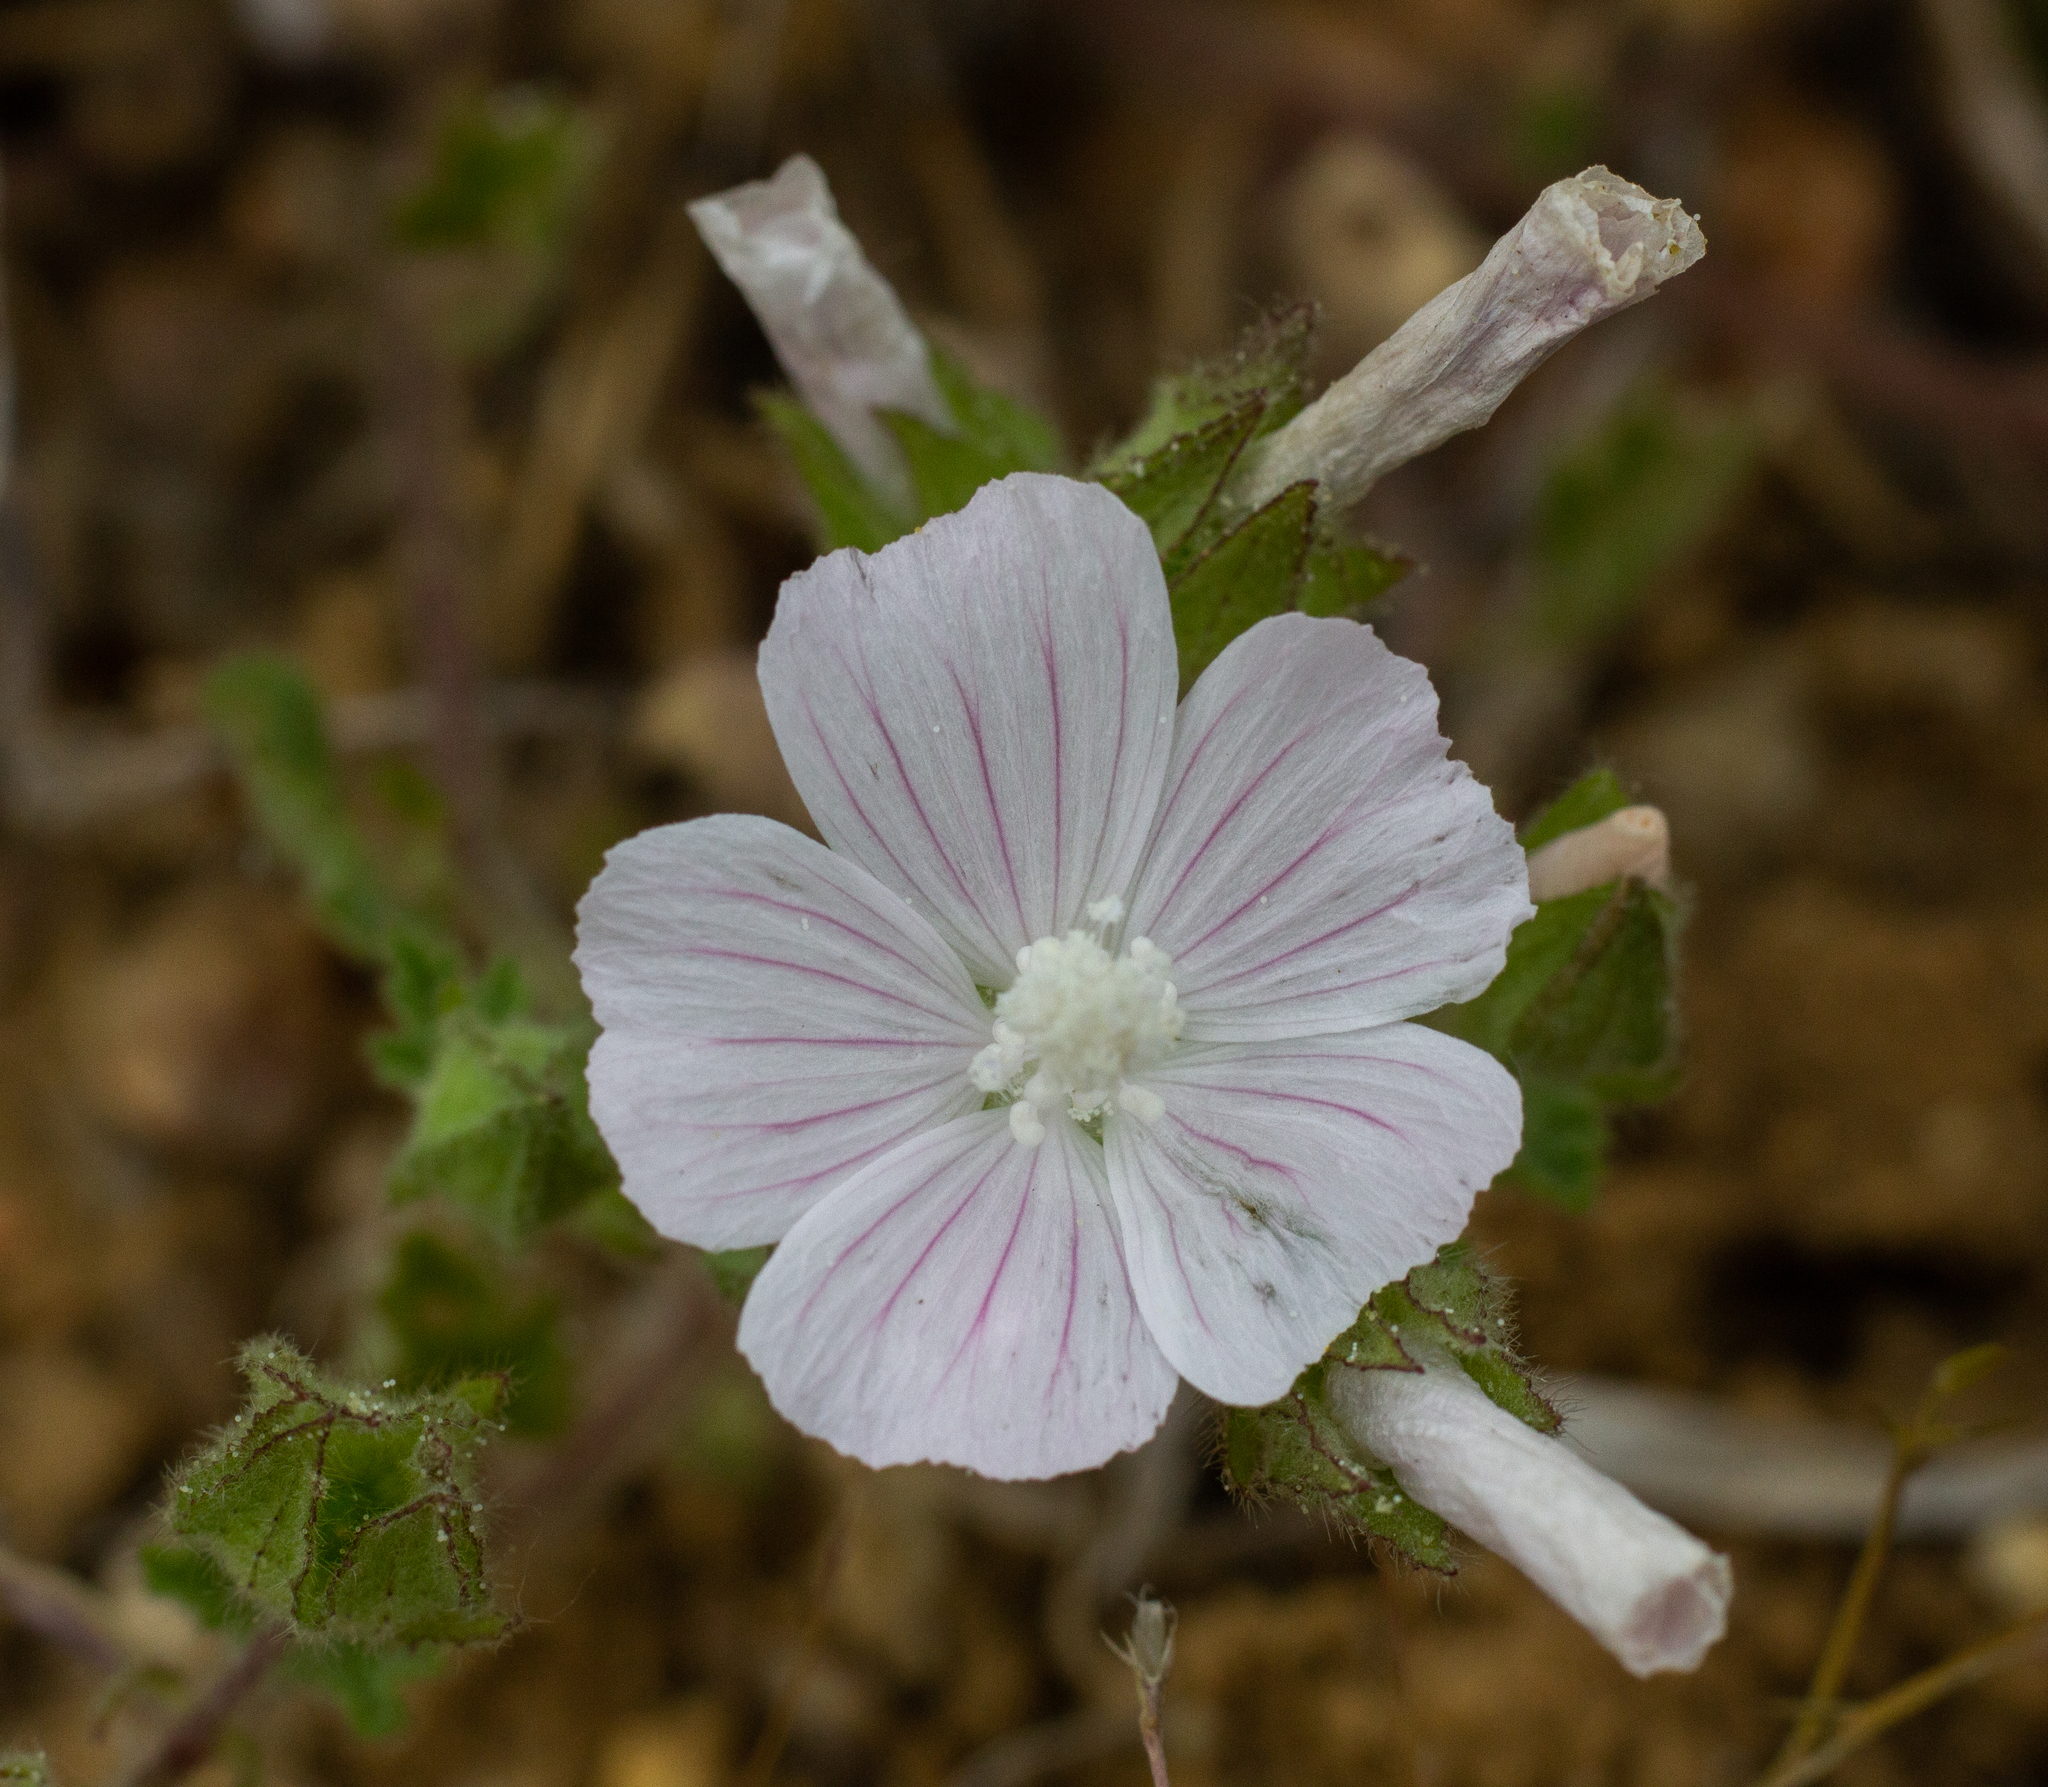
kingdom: Plantae
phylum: Tracheophyta
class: Magnoliopsida
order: Malvales
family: Malvaceae
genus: Malva
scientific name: Malva hispanica
